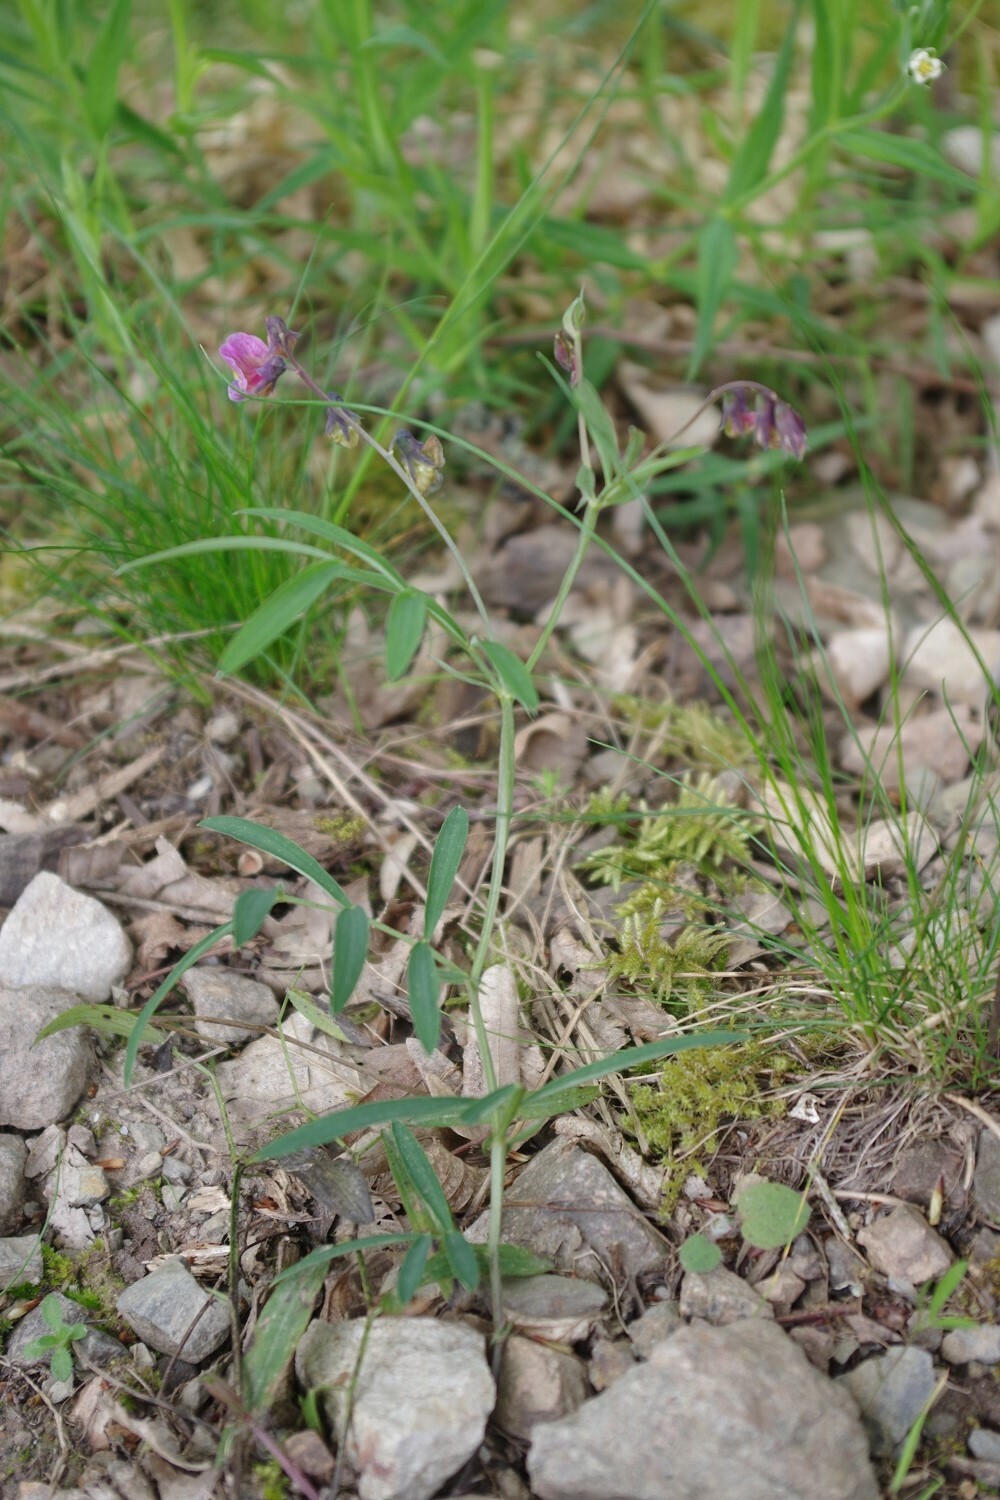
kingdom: Plantae
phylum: Tracheophyta
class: Magnoliopsida
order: Fabales
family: Fabaceae
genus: Lathyrus
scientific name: Lathyrus linifolius
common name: Bitter-vetch
